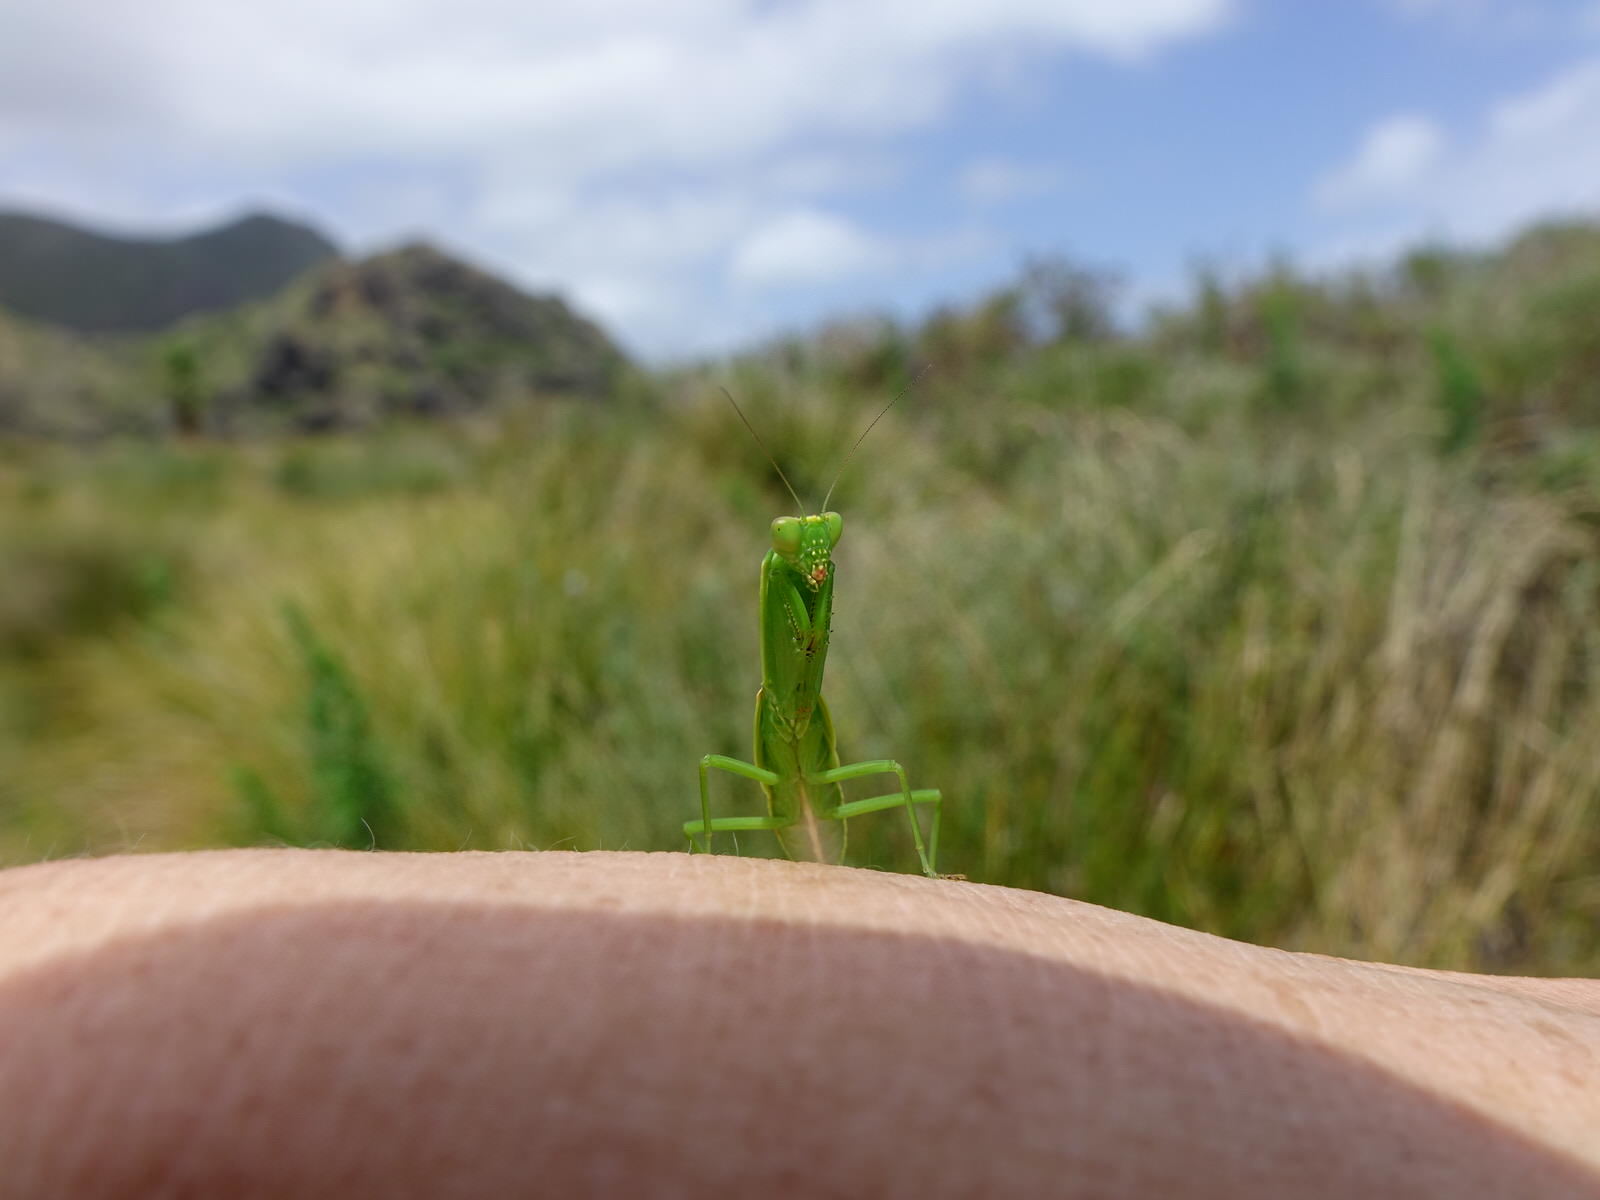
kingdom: Animalia
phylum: Arthropoda
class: Insecta
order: Mantodea
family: Mantidae
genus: Orthodera
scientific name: Orthodera novaezealandiae
